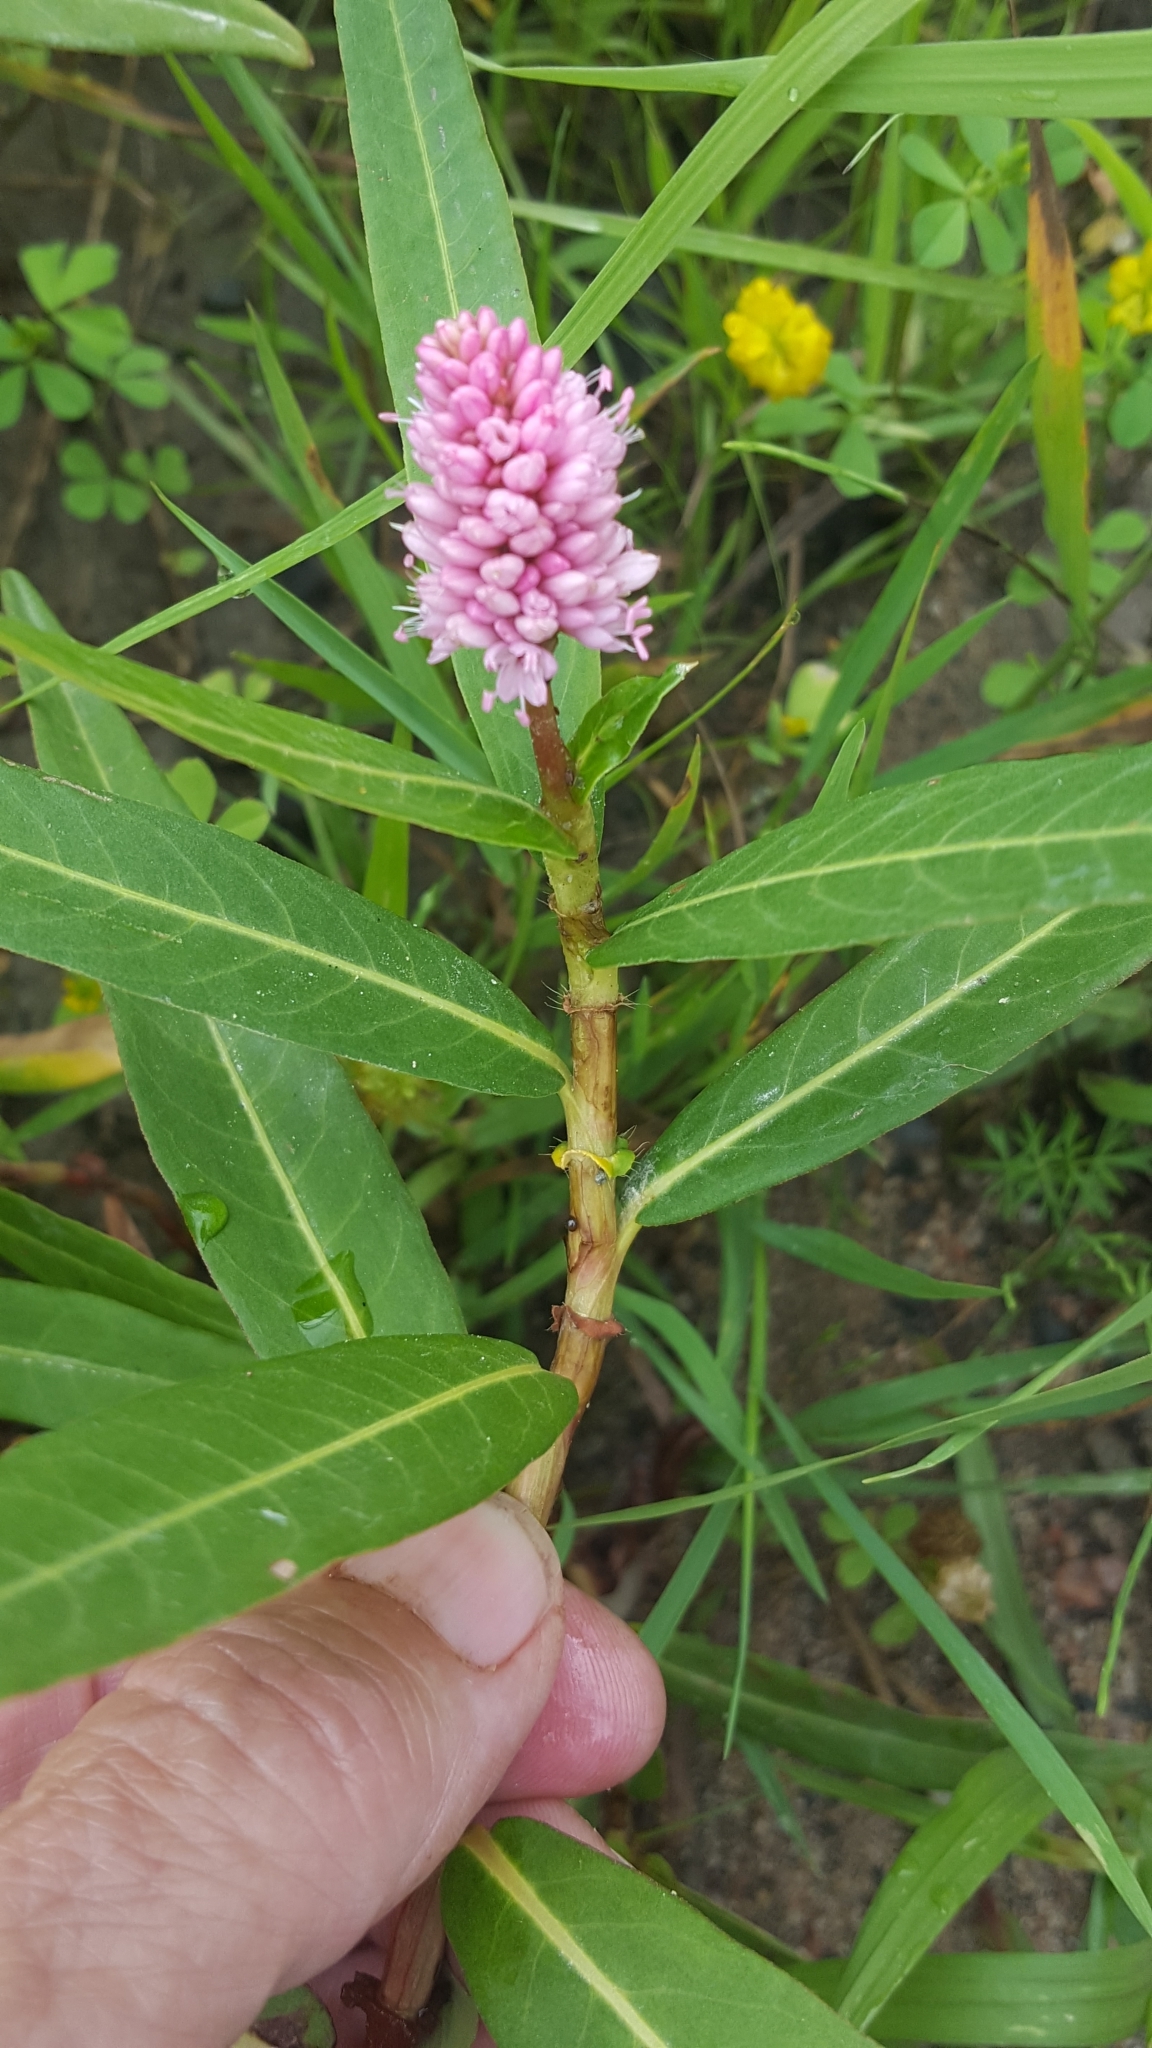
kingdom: Plantae
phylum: Tracheophyta
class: Magnoliopsida
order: Caryophyllales
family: Polygonaceae
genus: Persicaria
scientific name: Persicaria amphibia
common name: Amphibious bistort
